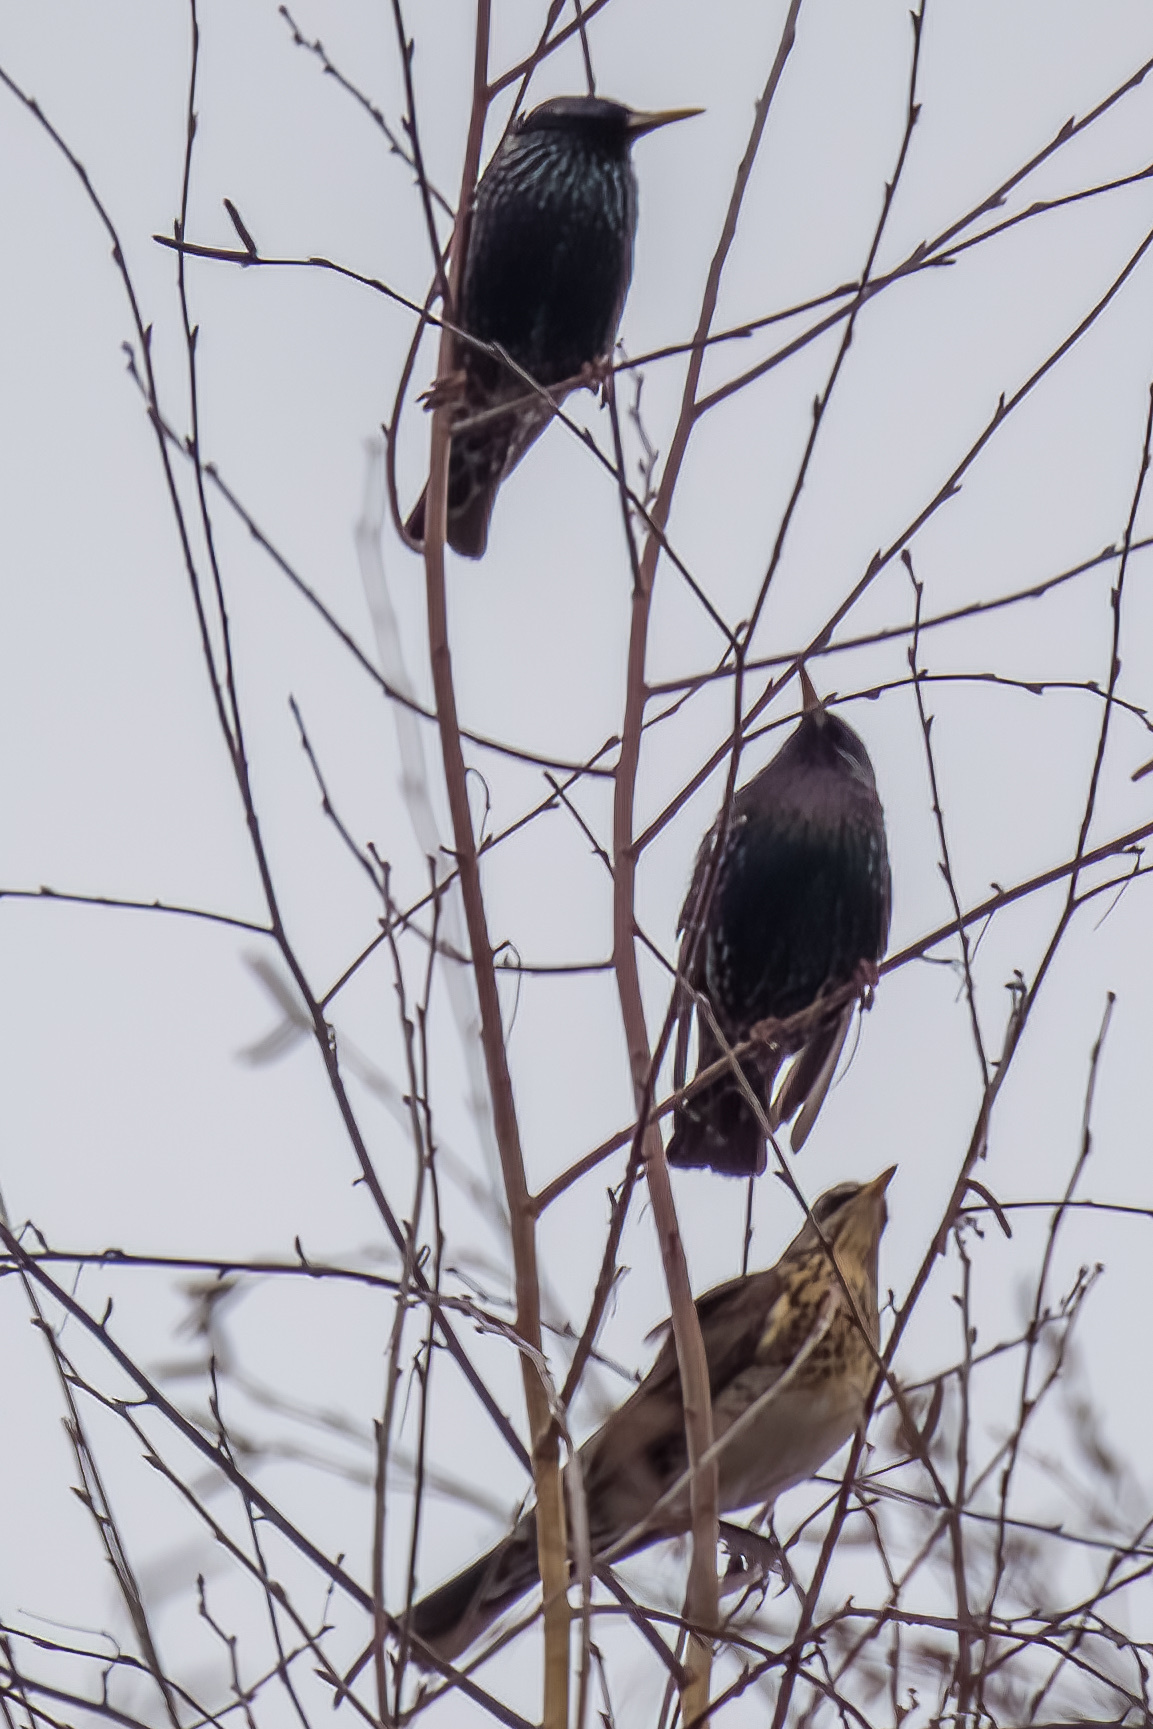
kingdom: Animalia
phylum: Chordata
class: Aves
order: Passeriformes
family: Sturnidae
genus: Sturnus
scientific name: Sturnus vulgaris
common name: Common starling
